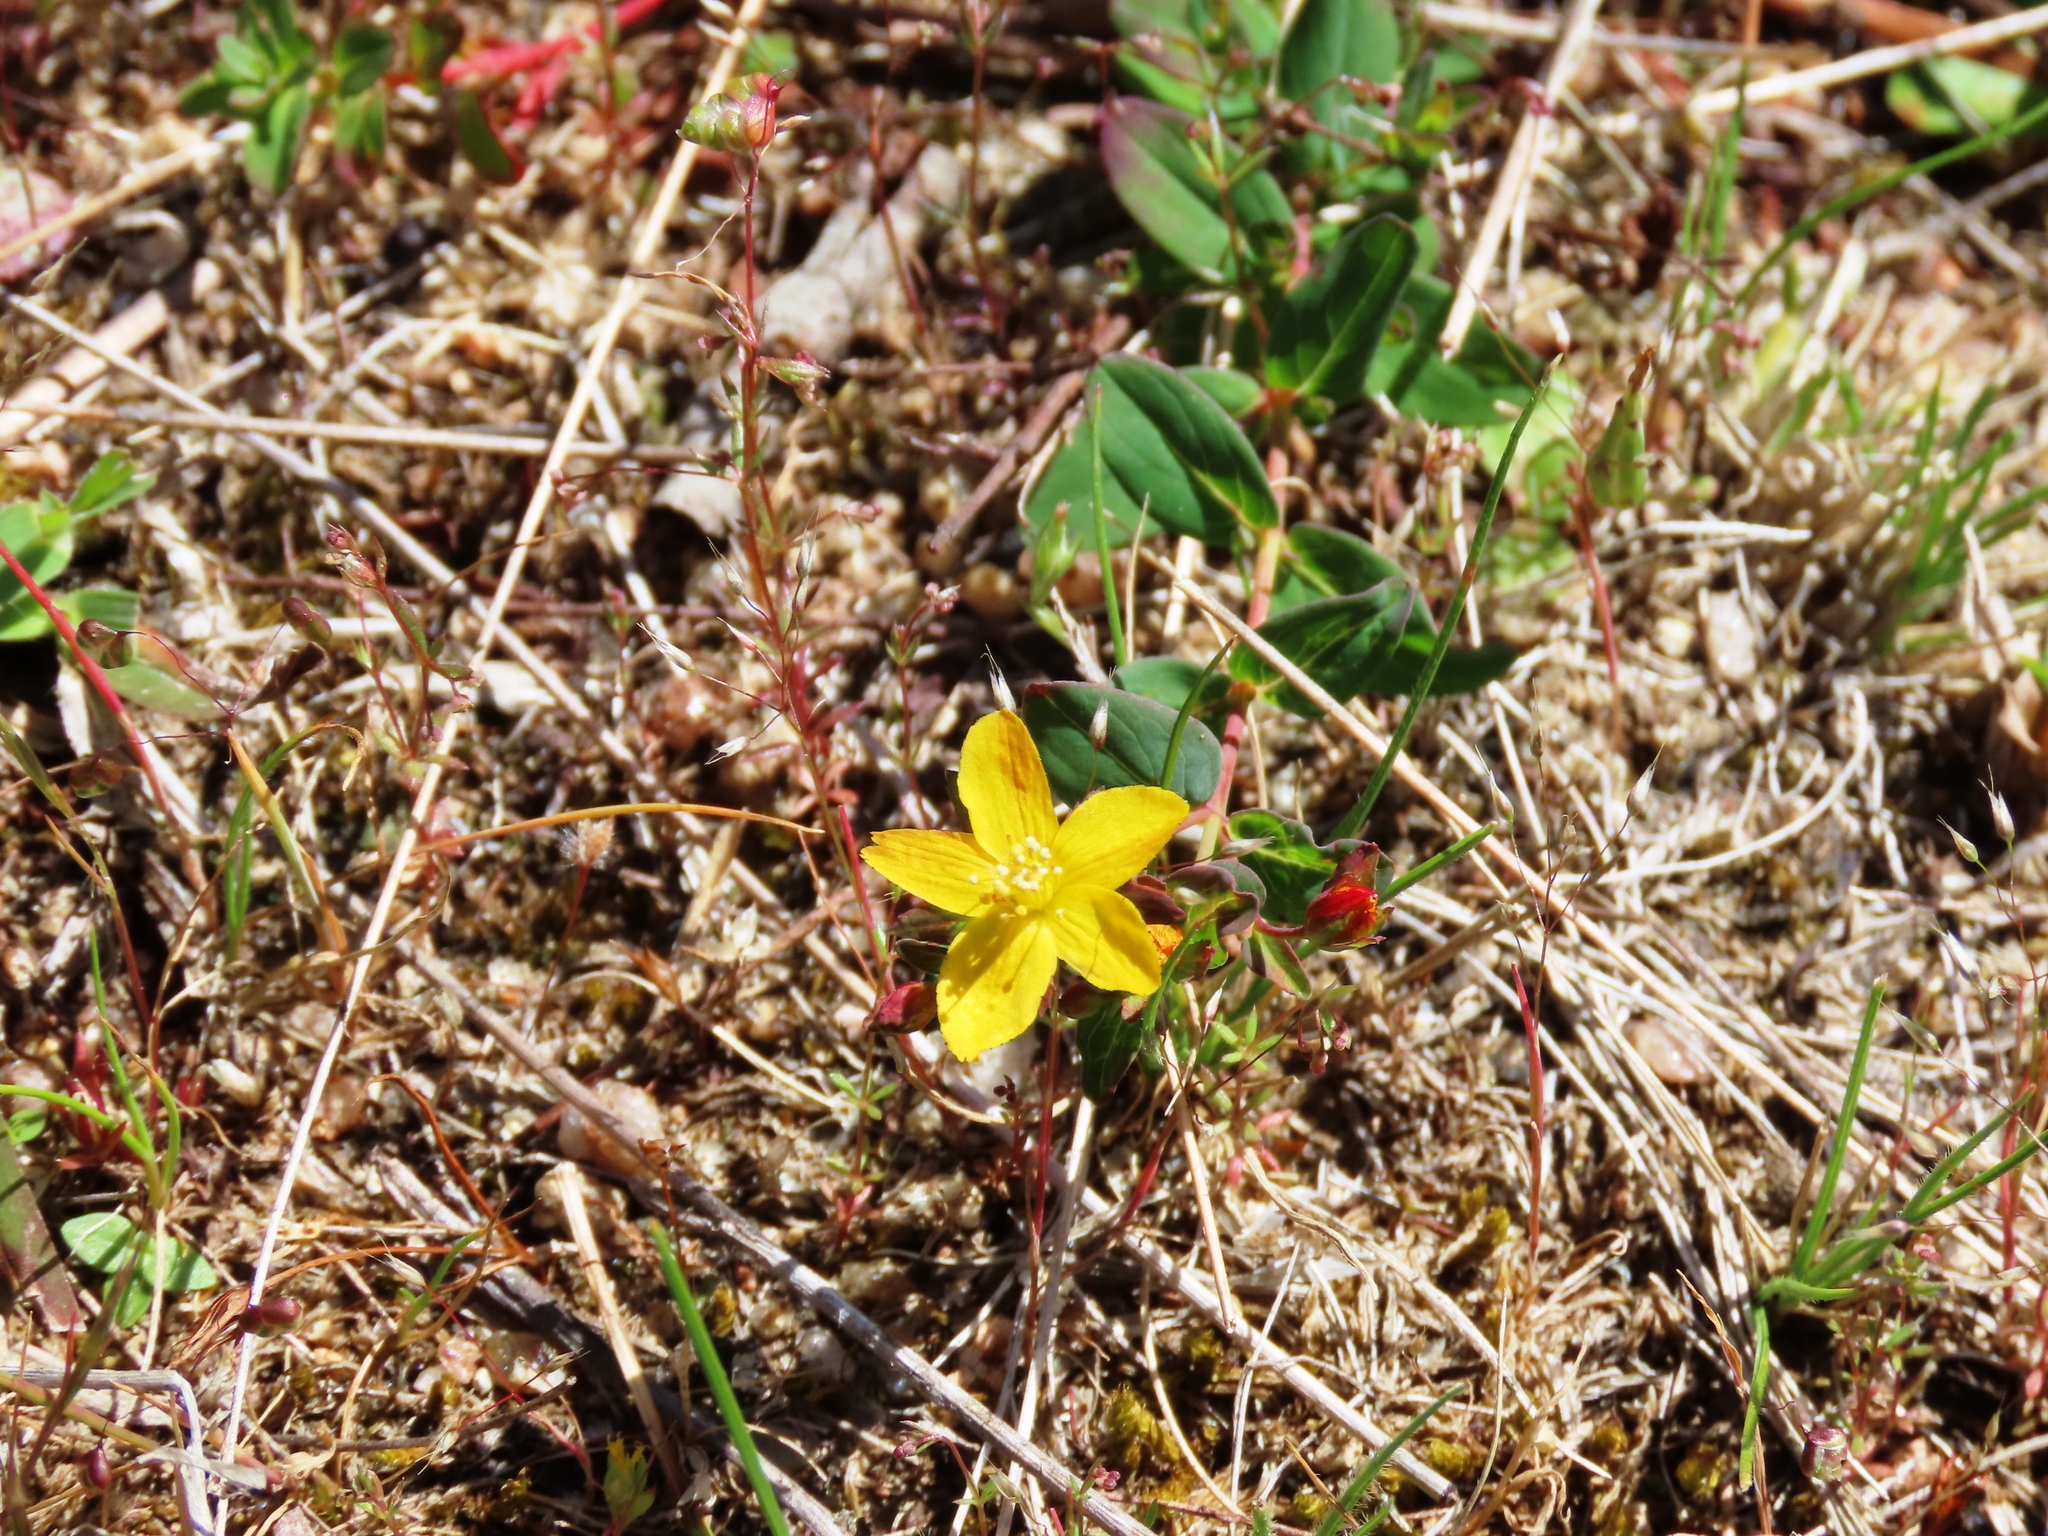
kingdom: Plantae
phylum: Tracheophyta
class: Magnoliopsida
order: Malpighiales
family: Hypericaceae
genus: Hypericum
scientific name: Hypericum gramineum
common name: Grassy st. johnswort
